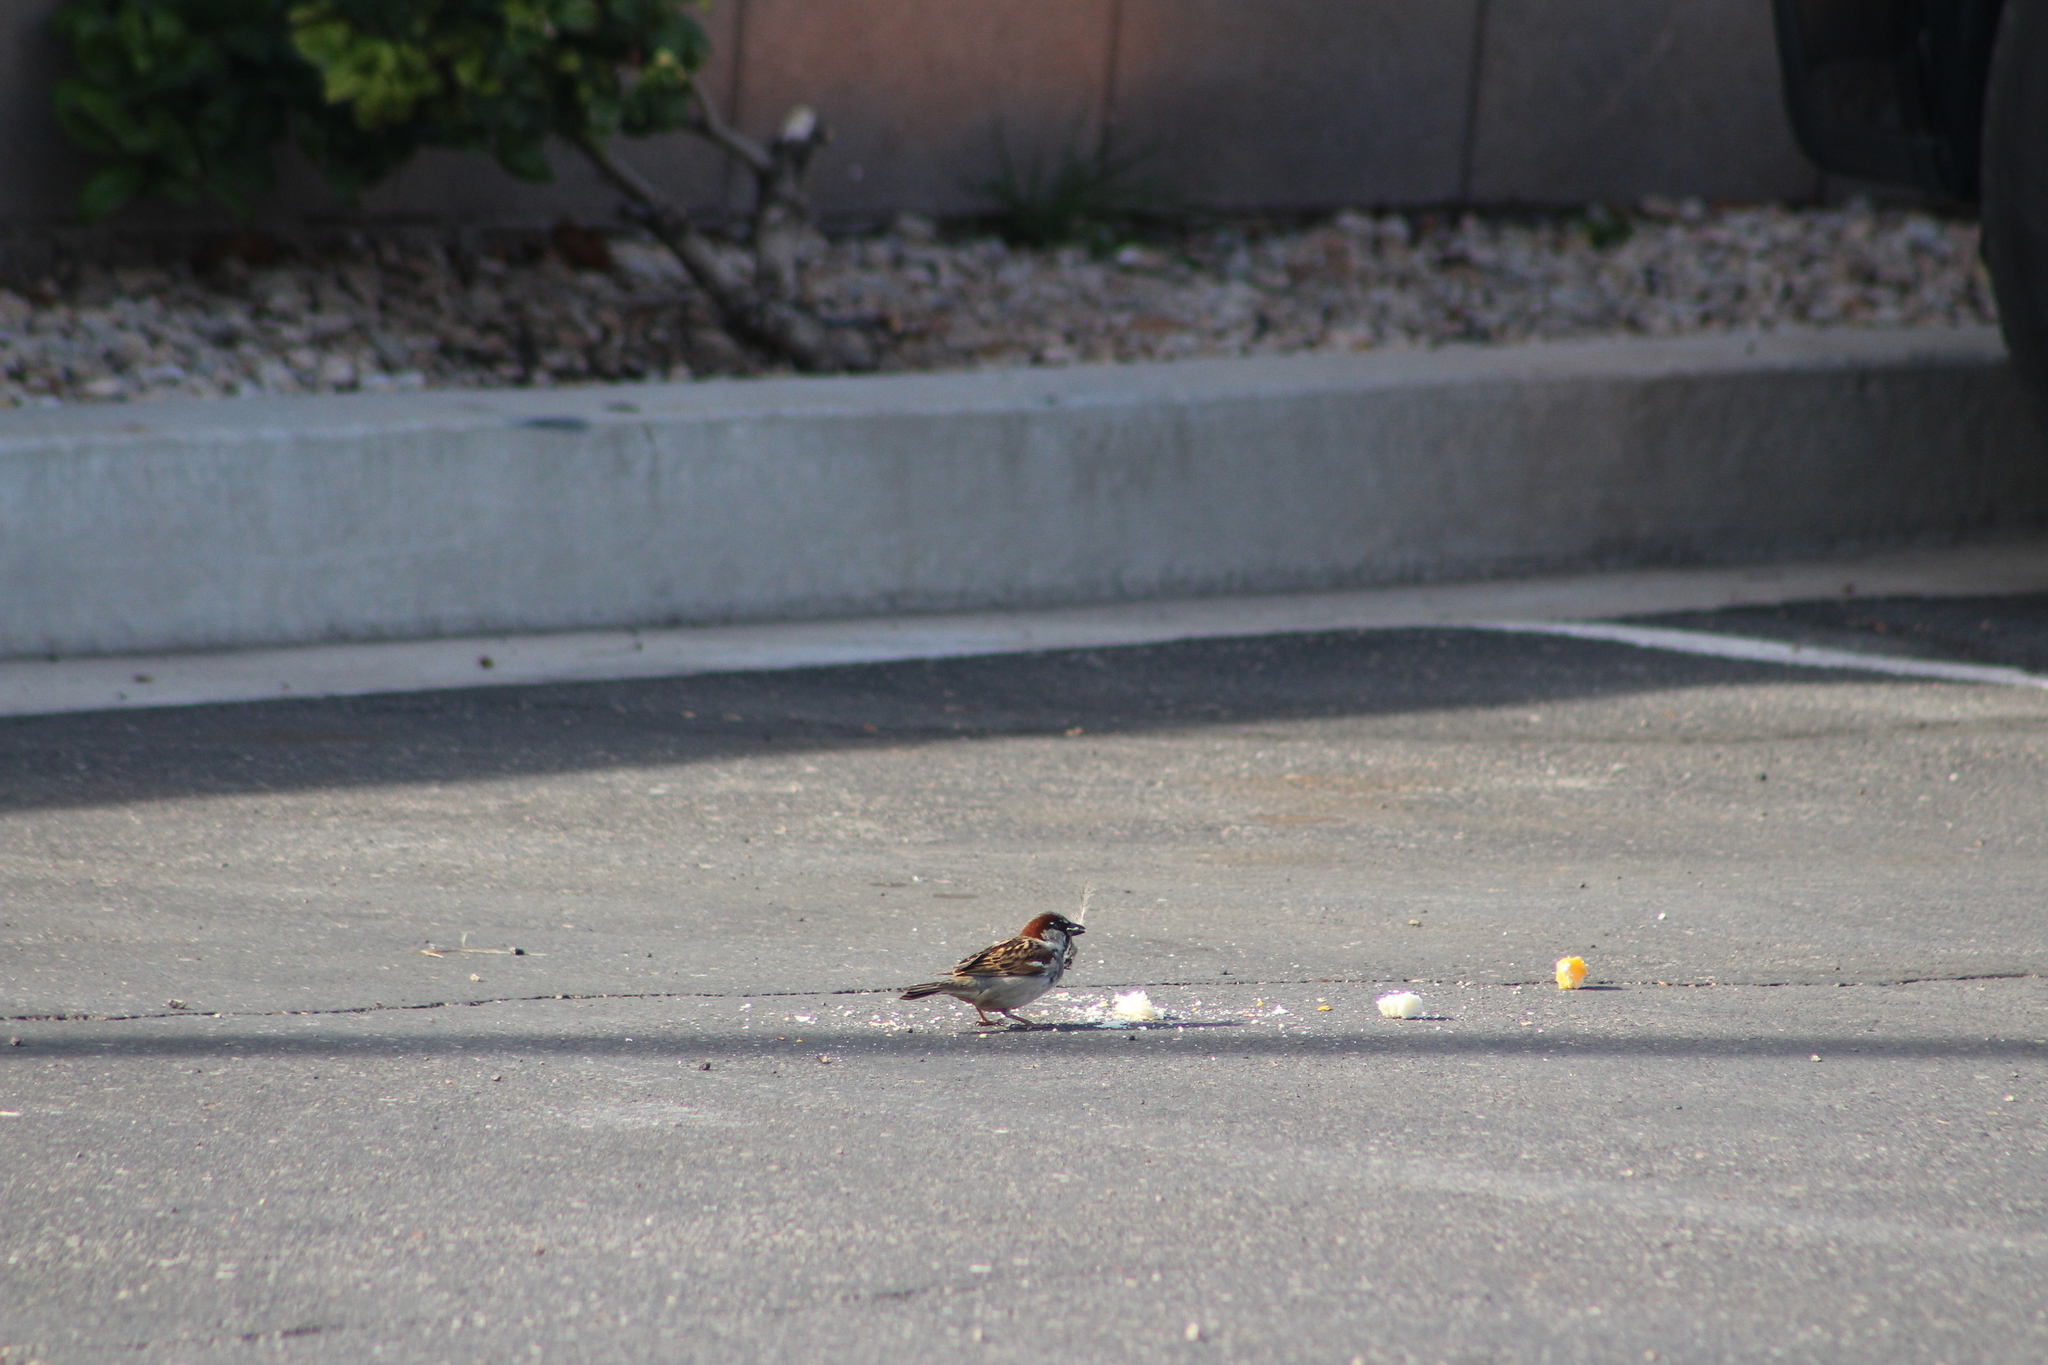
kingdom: Animalia
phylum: Chordata
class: Aves
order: Passeriformes
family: Passeridae
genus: Passer
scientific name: Passer domesticus
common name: House sparrow
